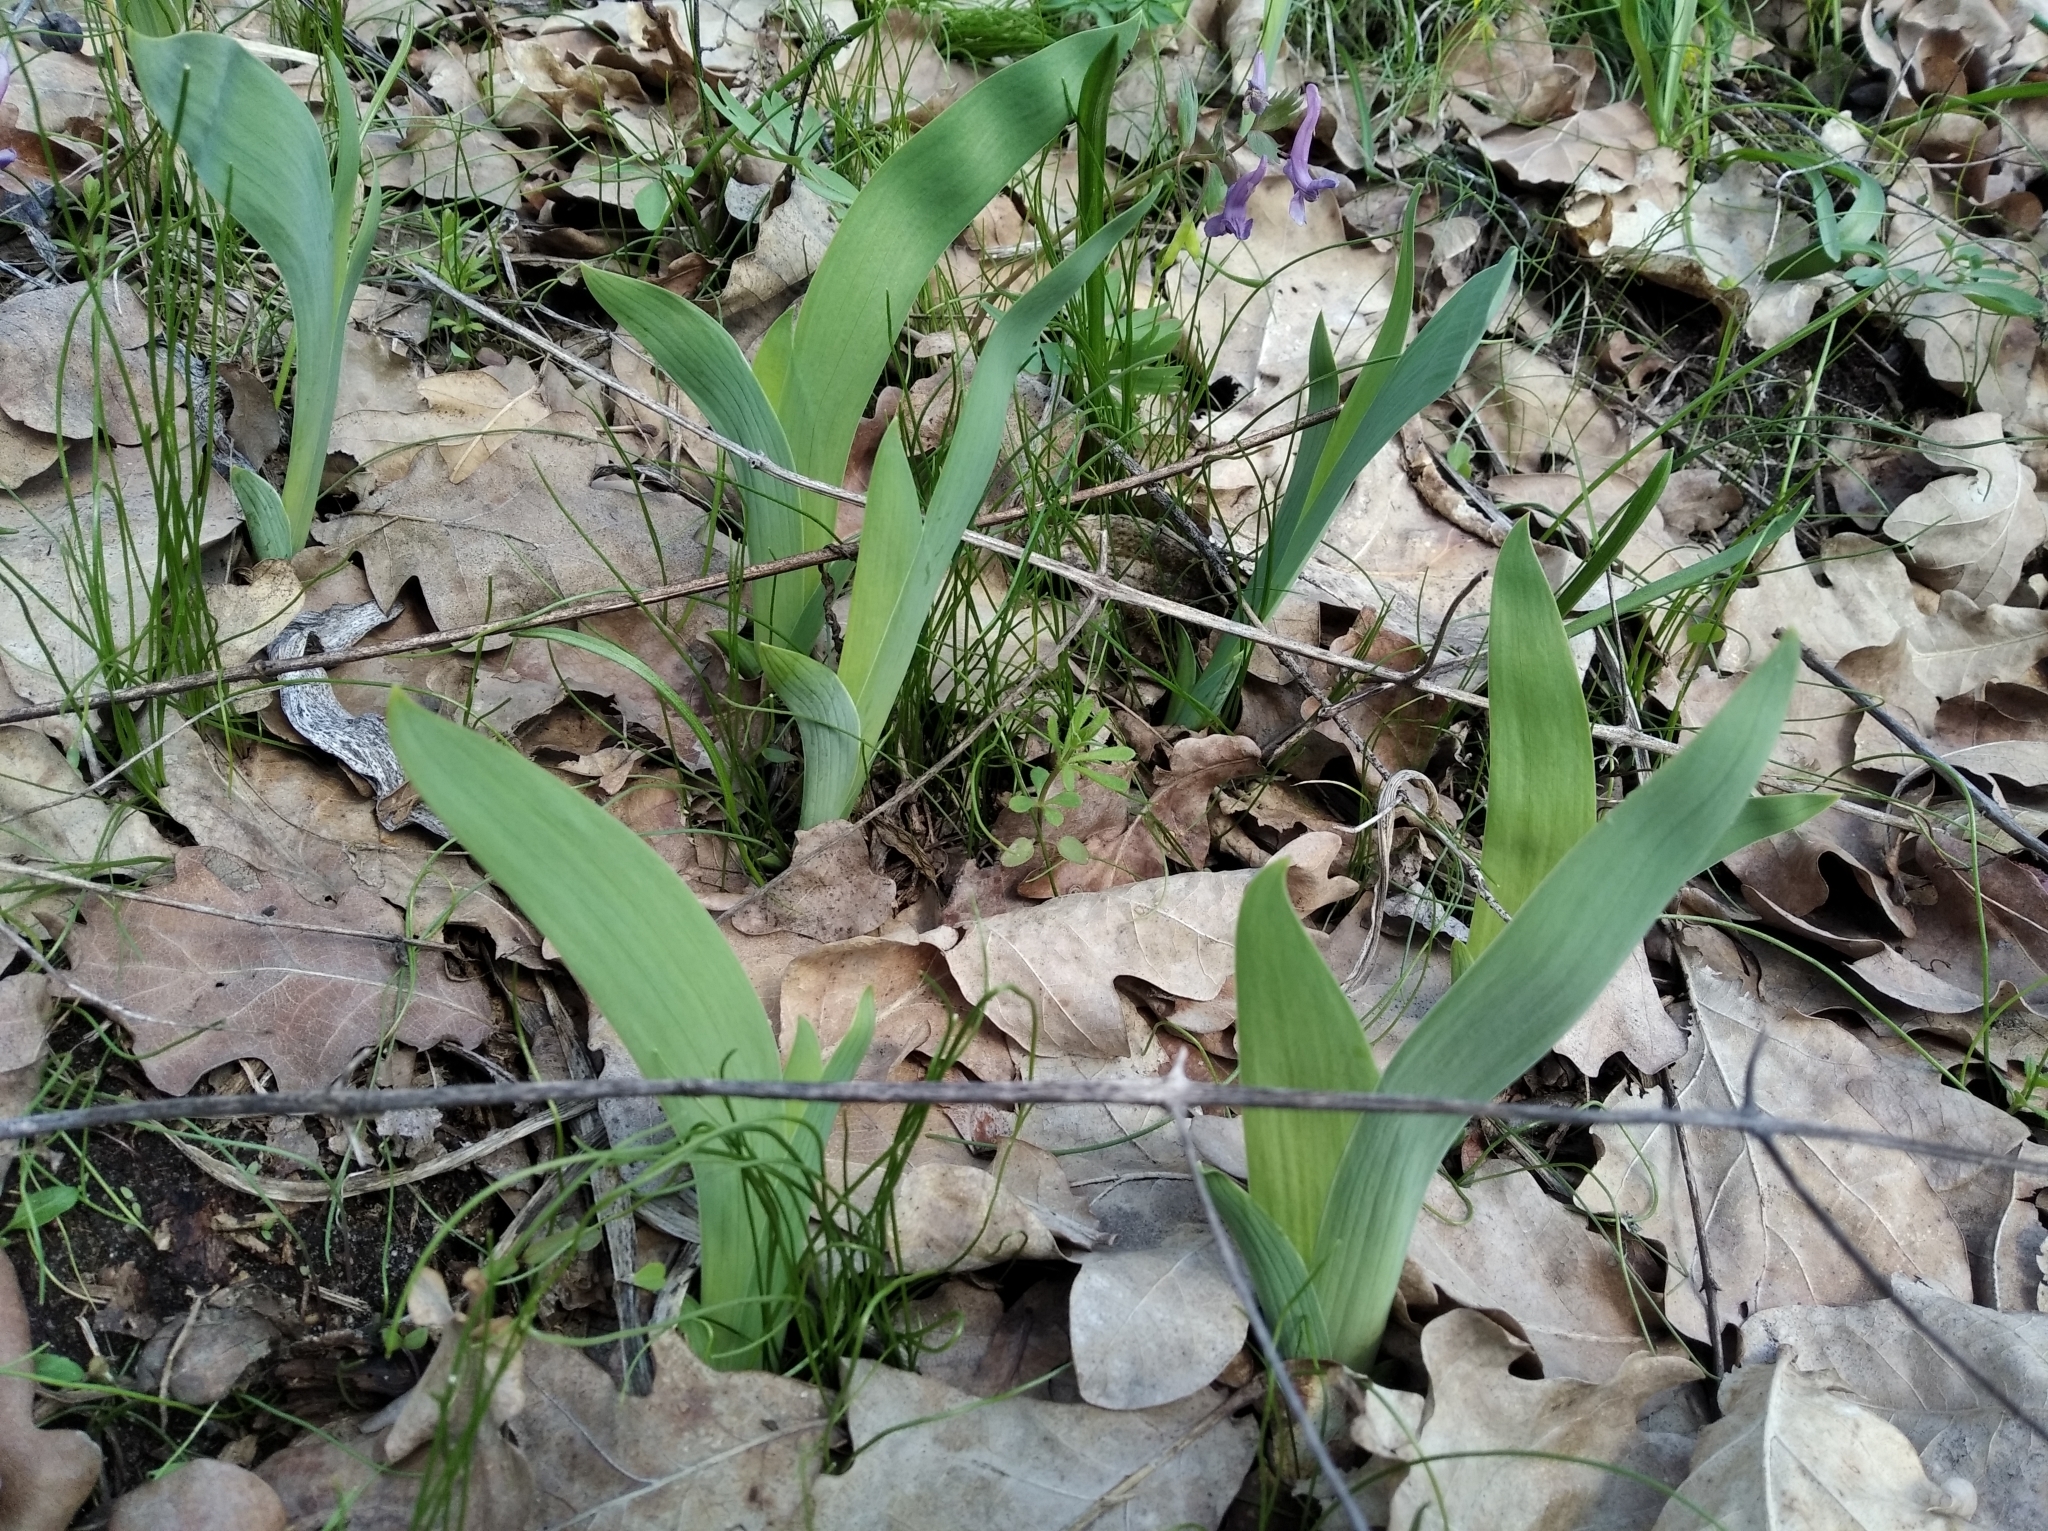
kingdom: Plantae
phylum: Tracheophyta
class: Liliopsida
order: Asparagales
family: Iridaceae
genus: Iris
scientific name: Iris aphylla
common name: Stool iris
